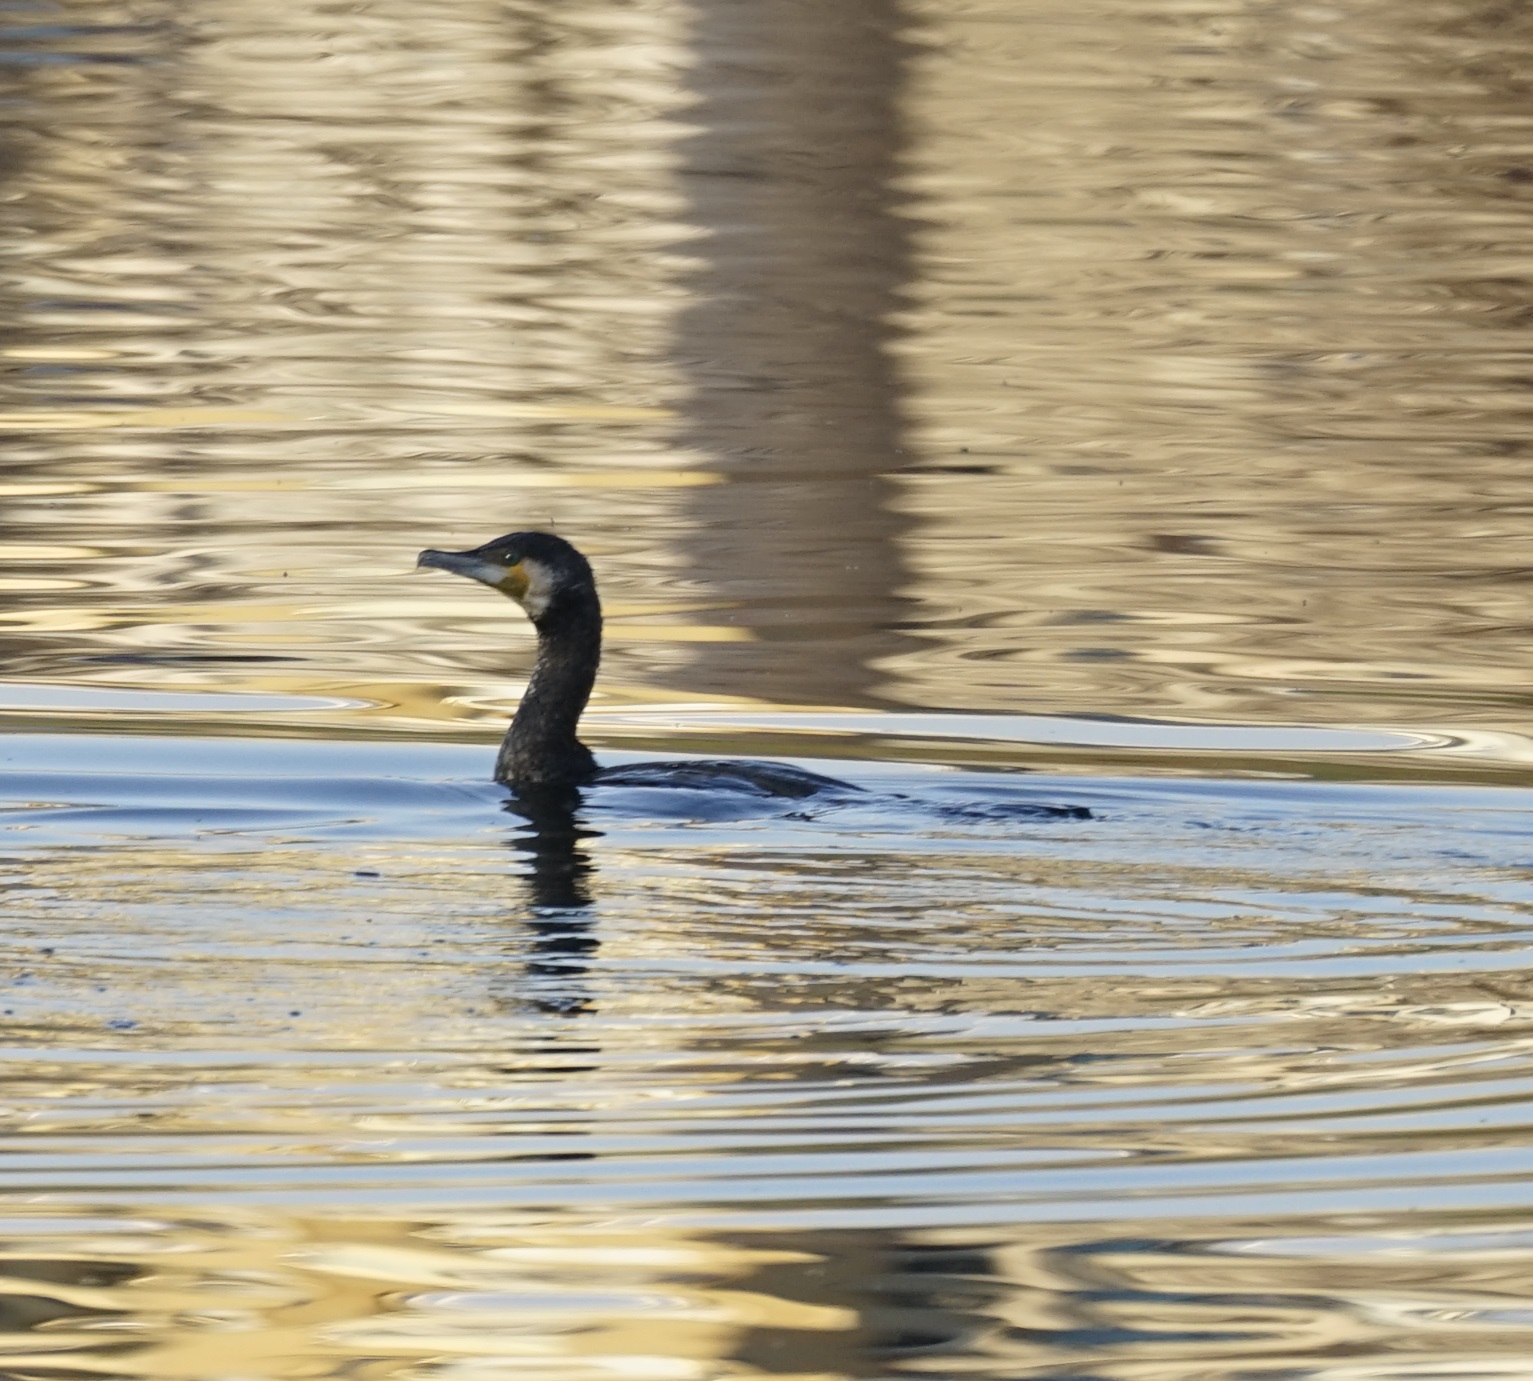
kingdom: Animalia
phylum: Chordata
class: Aves
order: Suliformes
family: Phalacrocoracidae
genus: Phalacrocorax
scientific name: Phalacrocorax carbo
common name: Great cormorant
